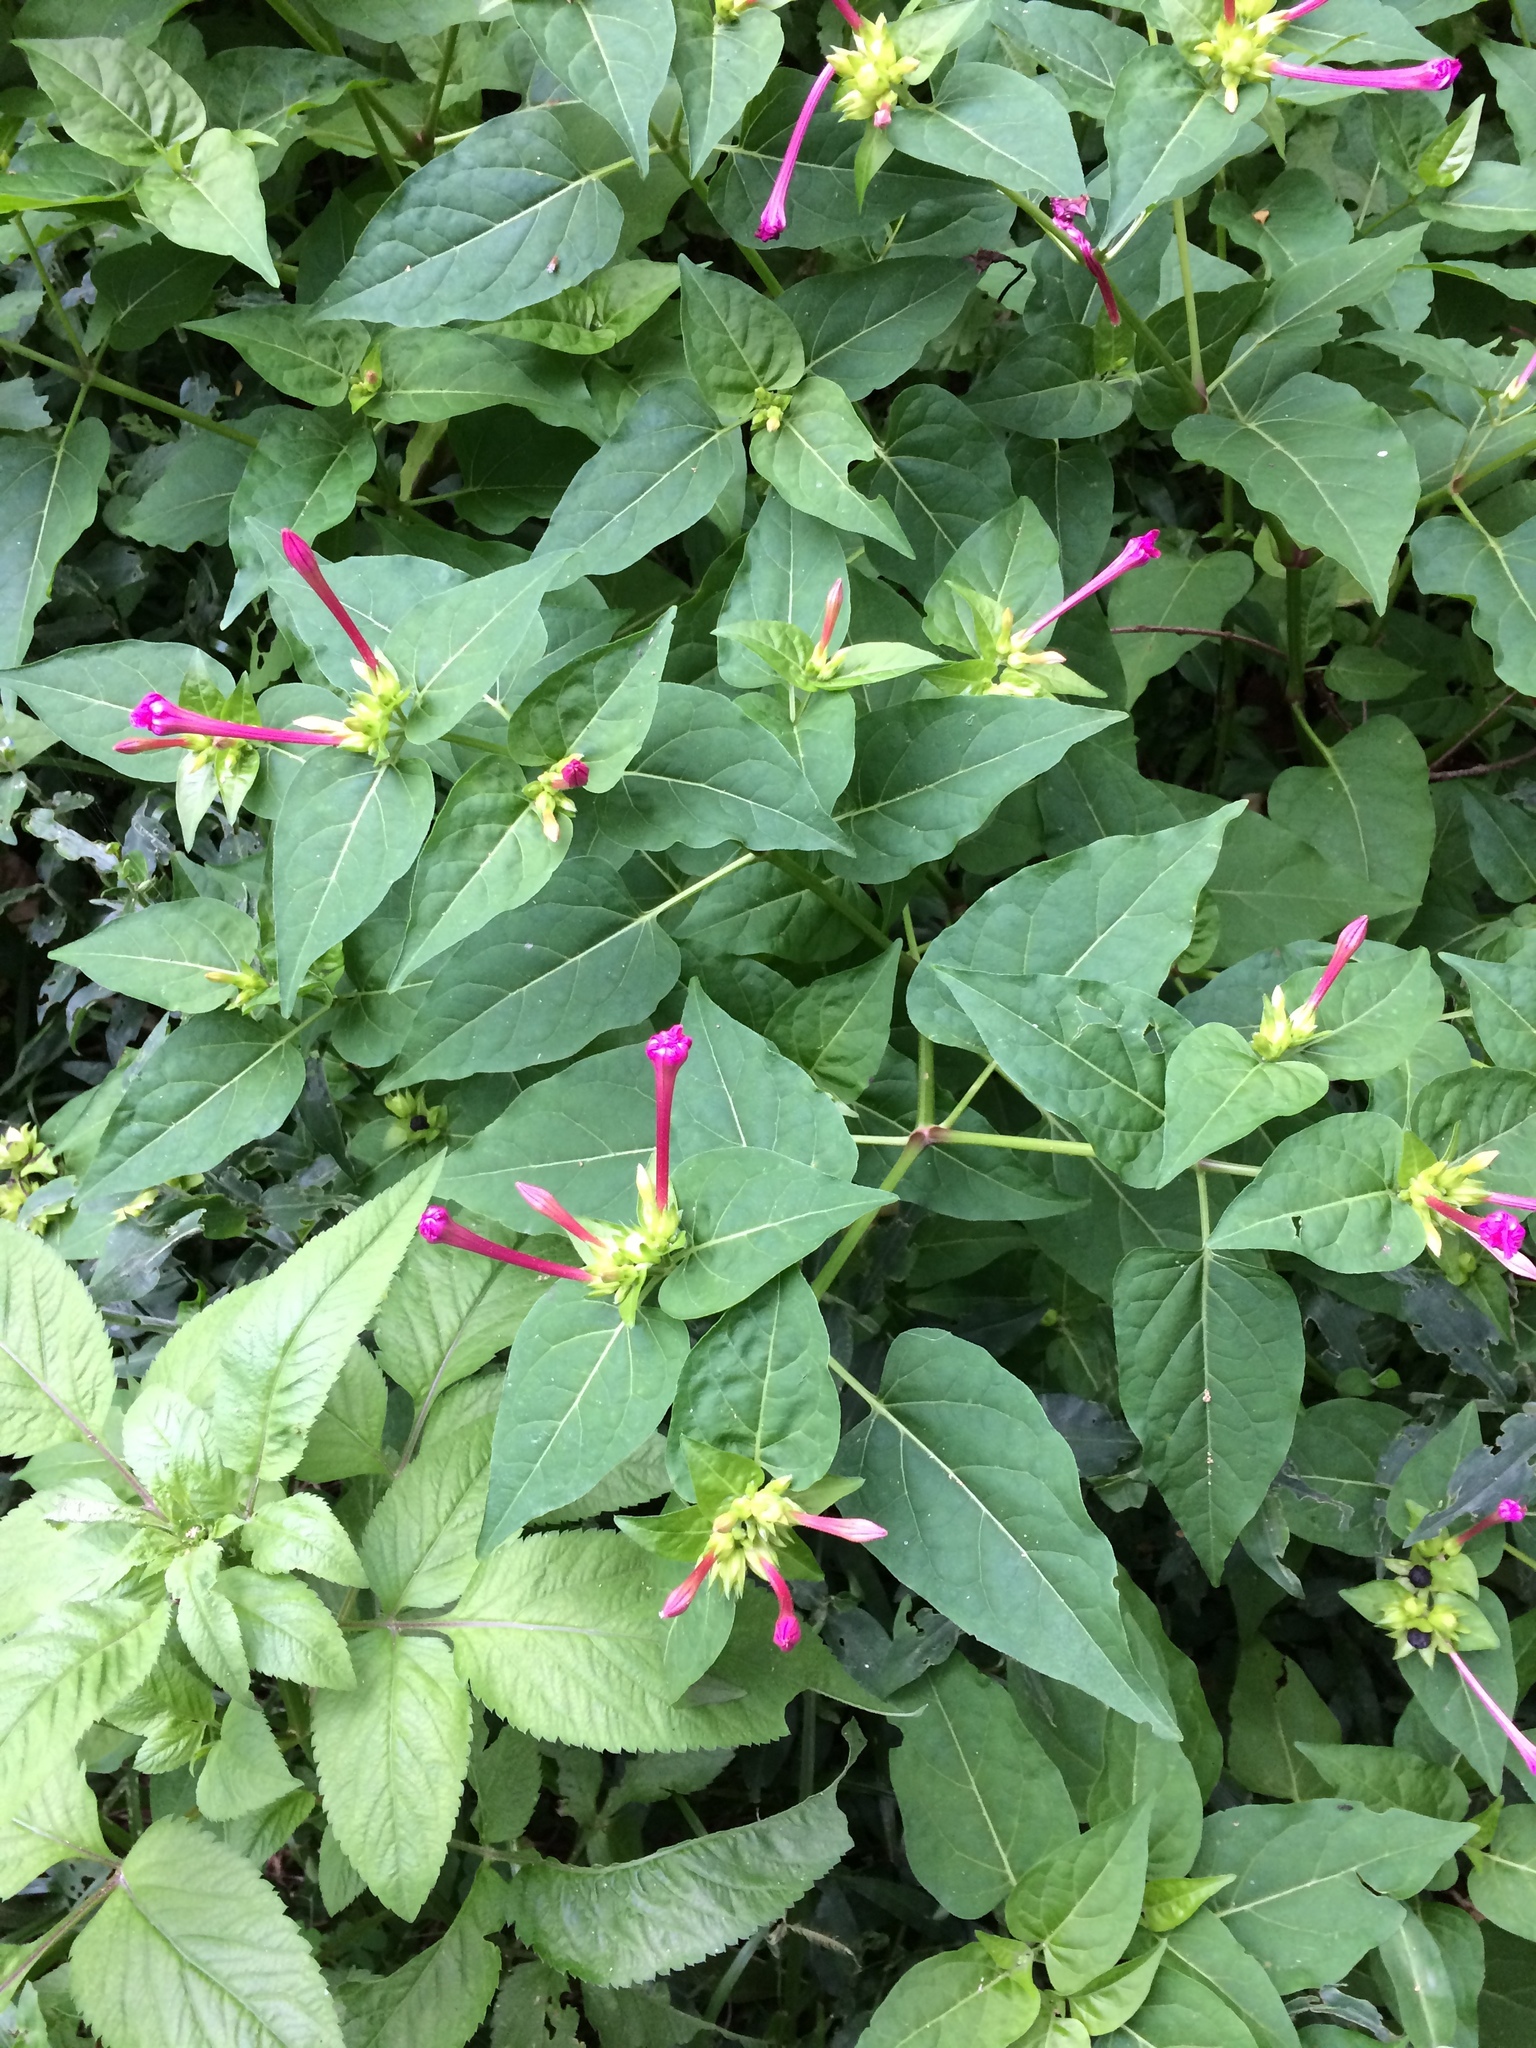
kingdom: Plantae
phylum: Tracheophyta
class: Magnoliopsida
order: Caryophyllales
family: Nyctaginaceae
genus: Mirabilis
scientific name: Mirabilis jalapa
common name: Marvel-of-peru
